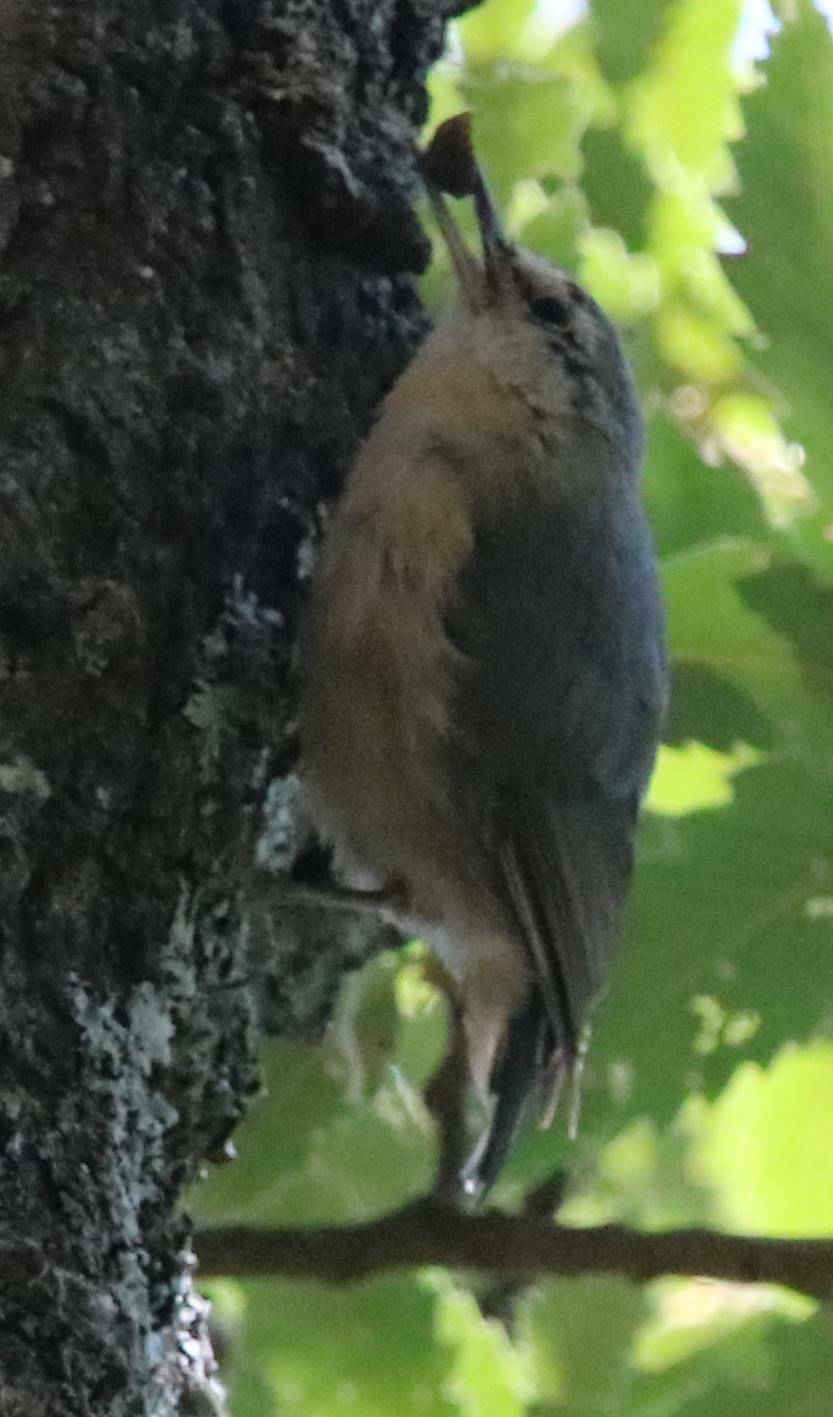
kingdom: Animalia
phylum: Chordata
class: Aves
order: Passeriformes
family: Sittidae
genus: Sitta
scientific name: Sitta ledanti
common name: Algerian nuthatch
